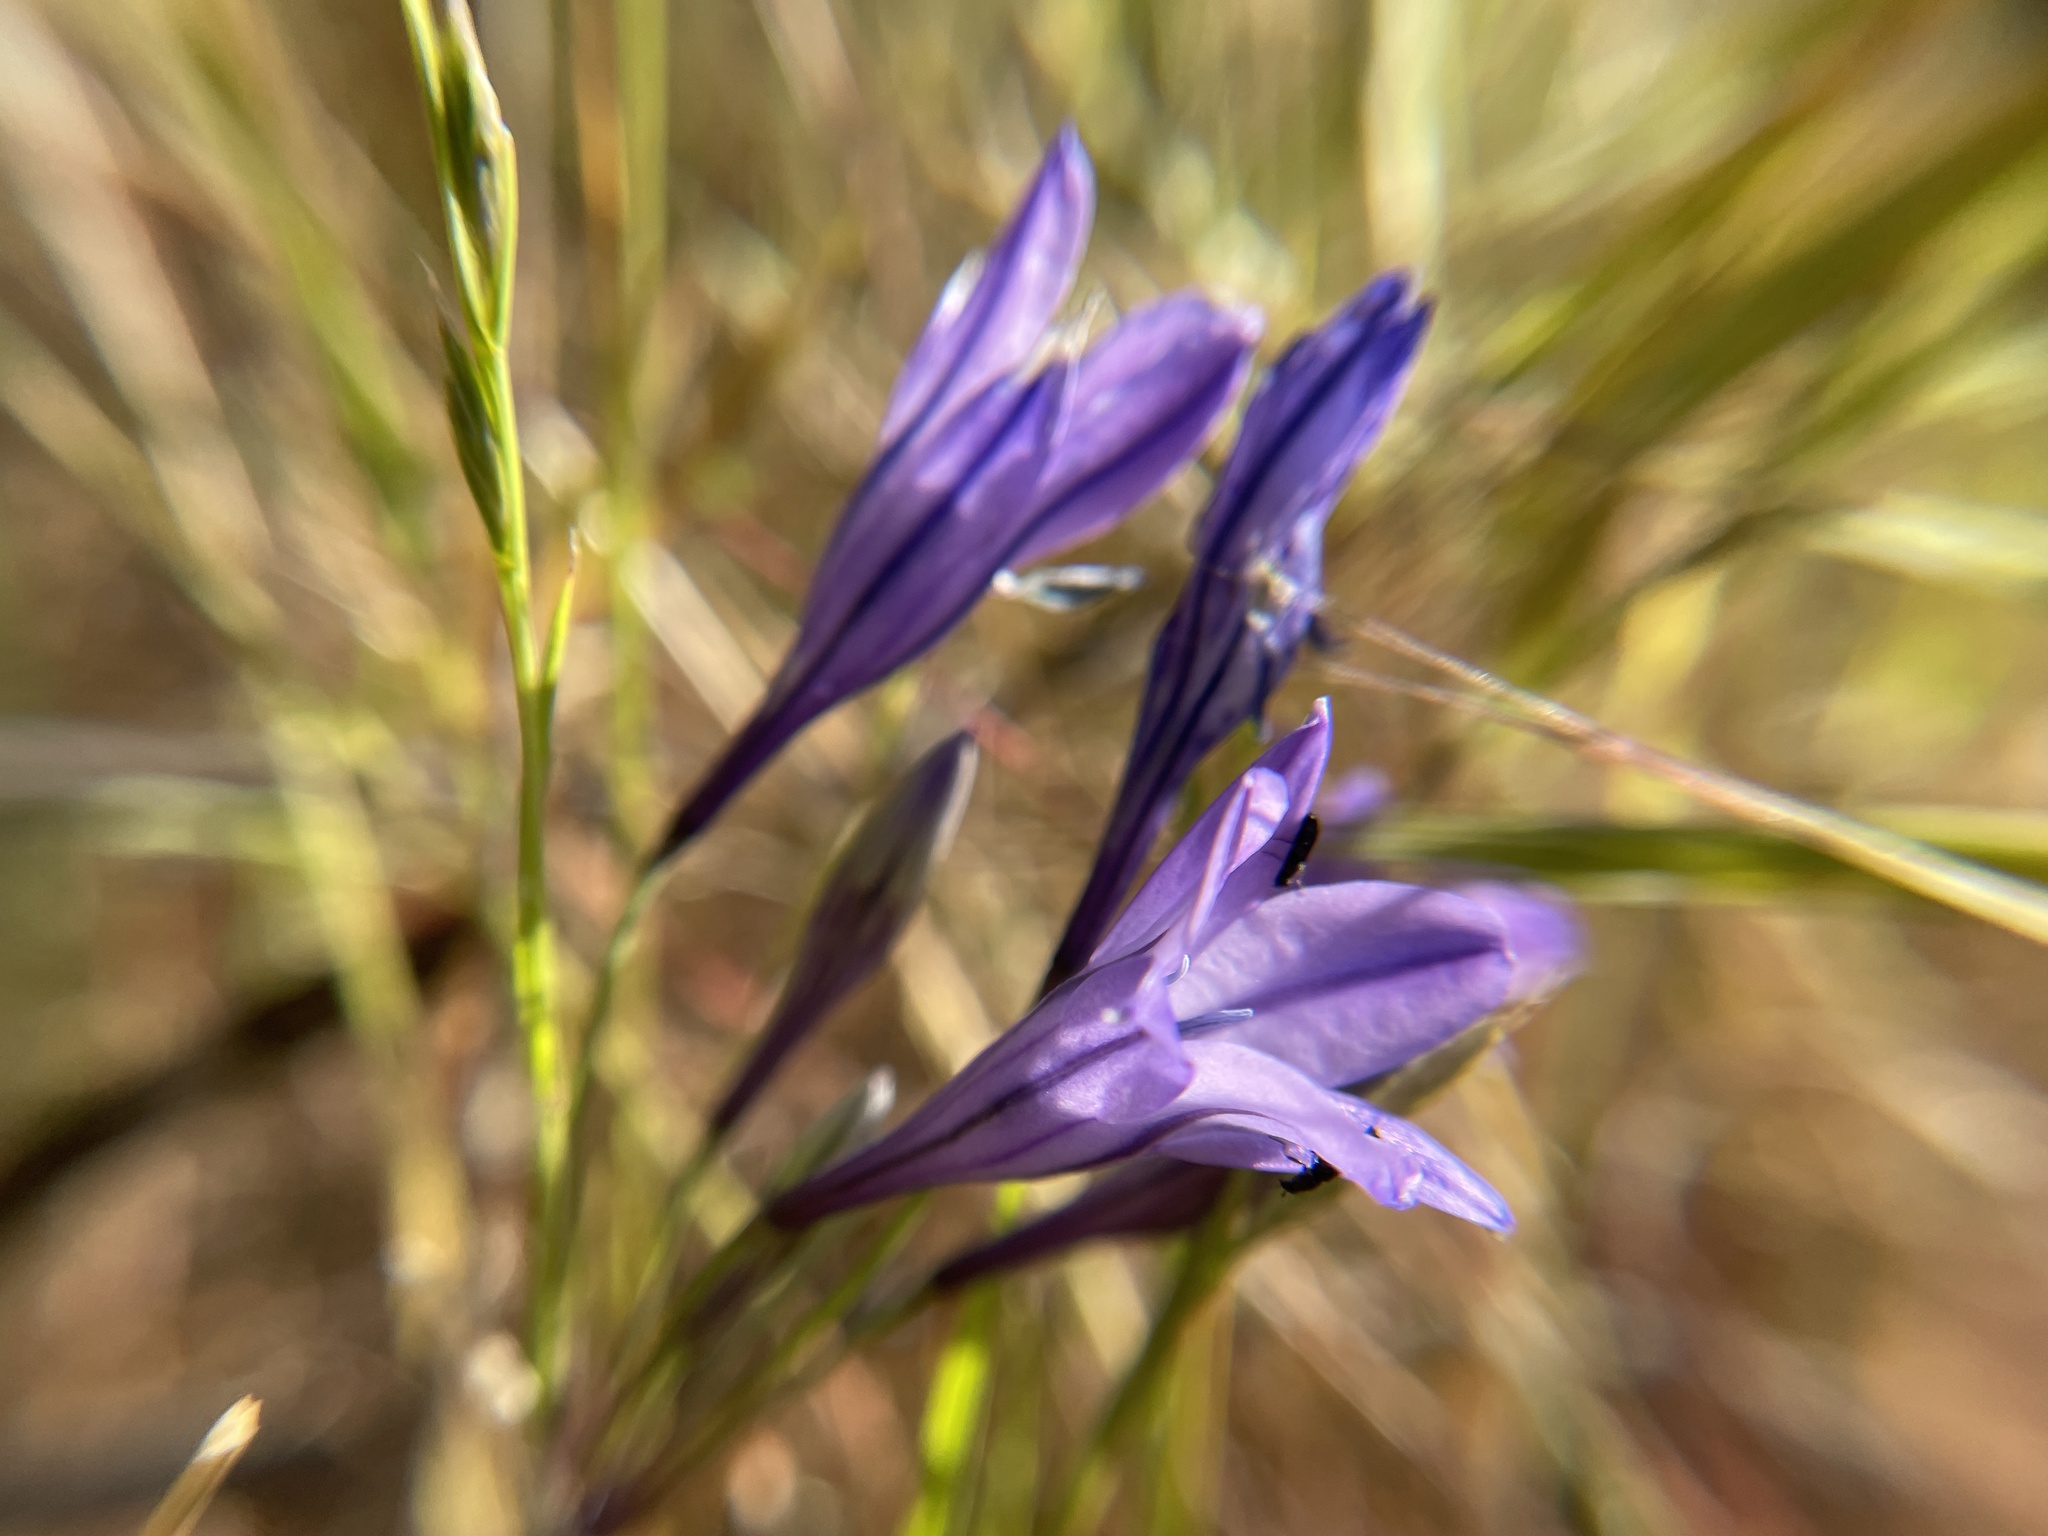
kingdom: Plantae
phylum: Tracheophyta
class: Liliopsida
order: Asparagales
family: Asparagaceae
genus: Triteleia
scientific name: Triteleia laxa
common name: Triplet-lily
